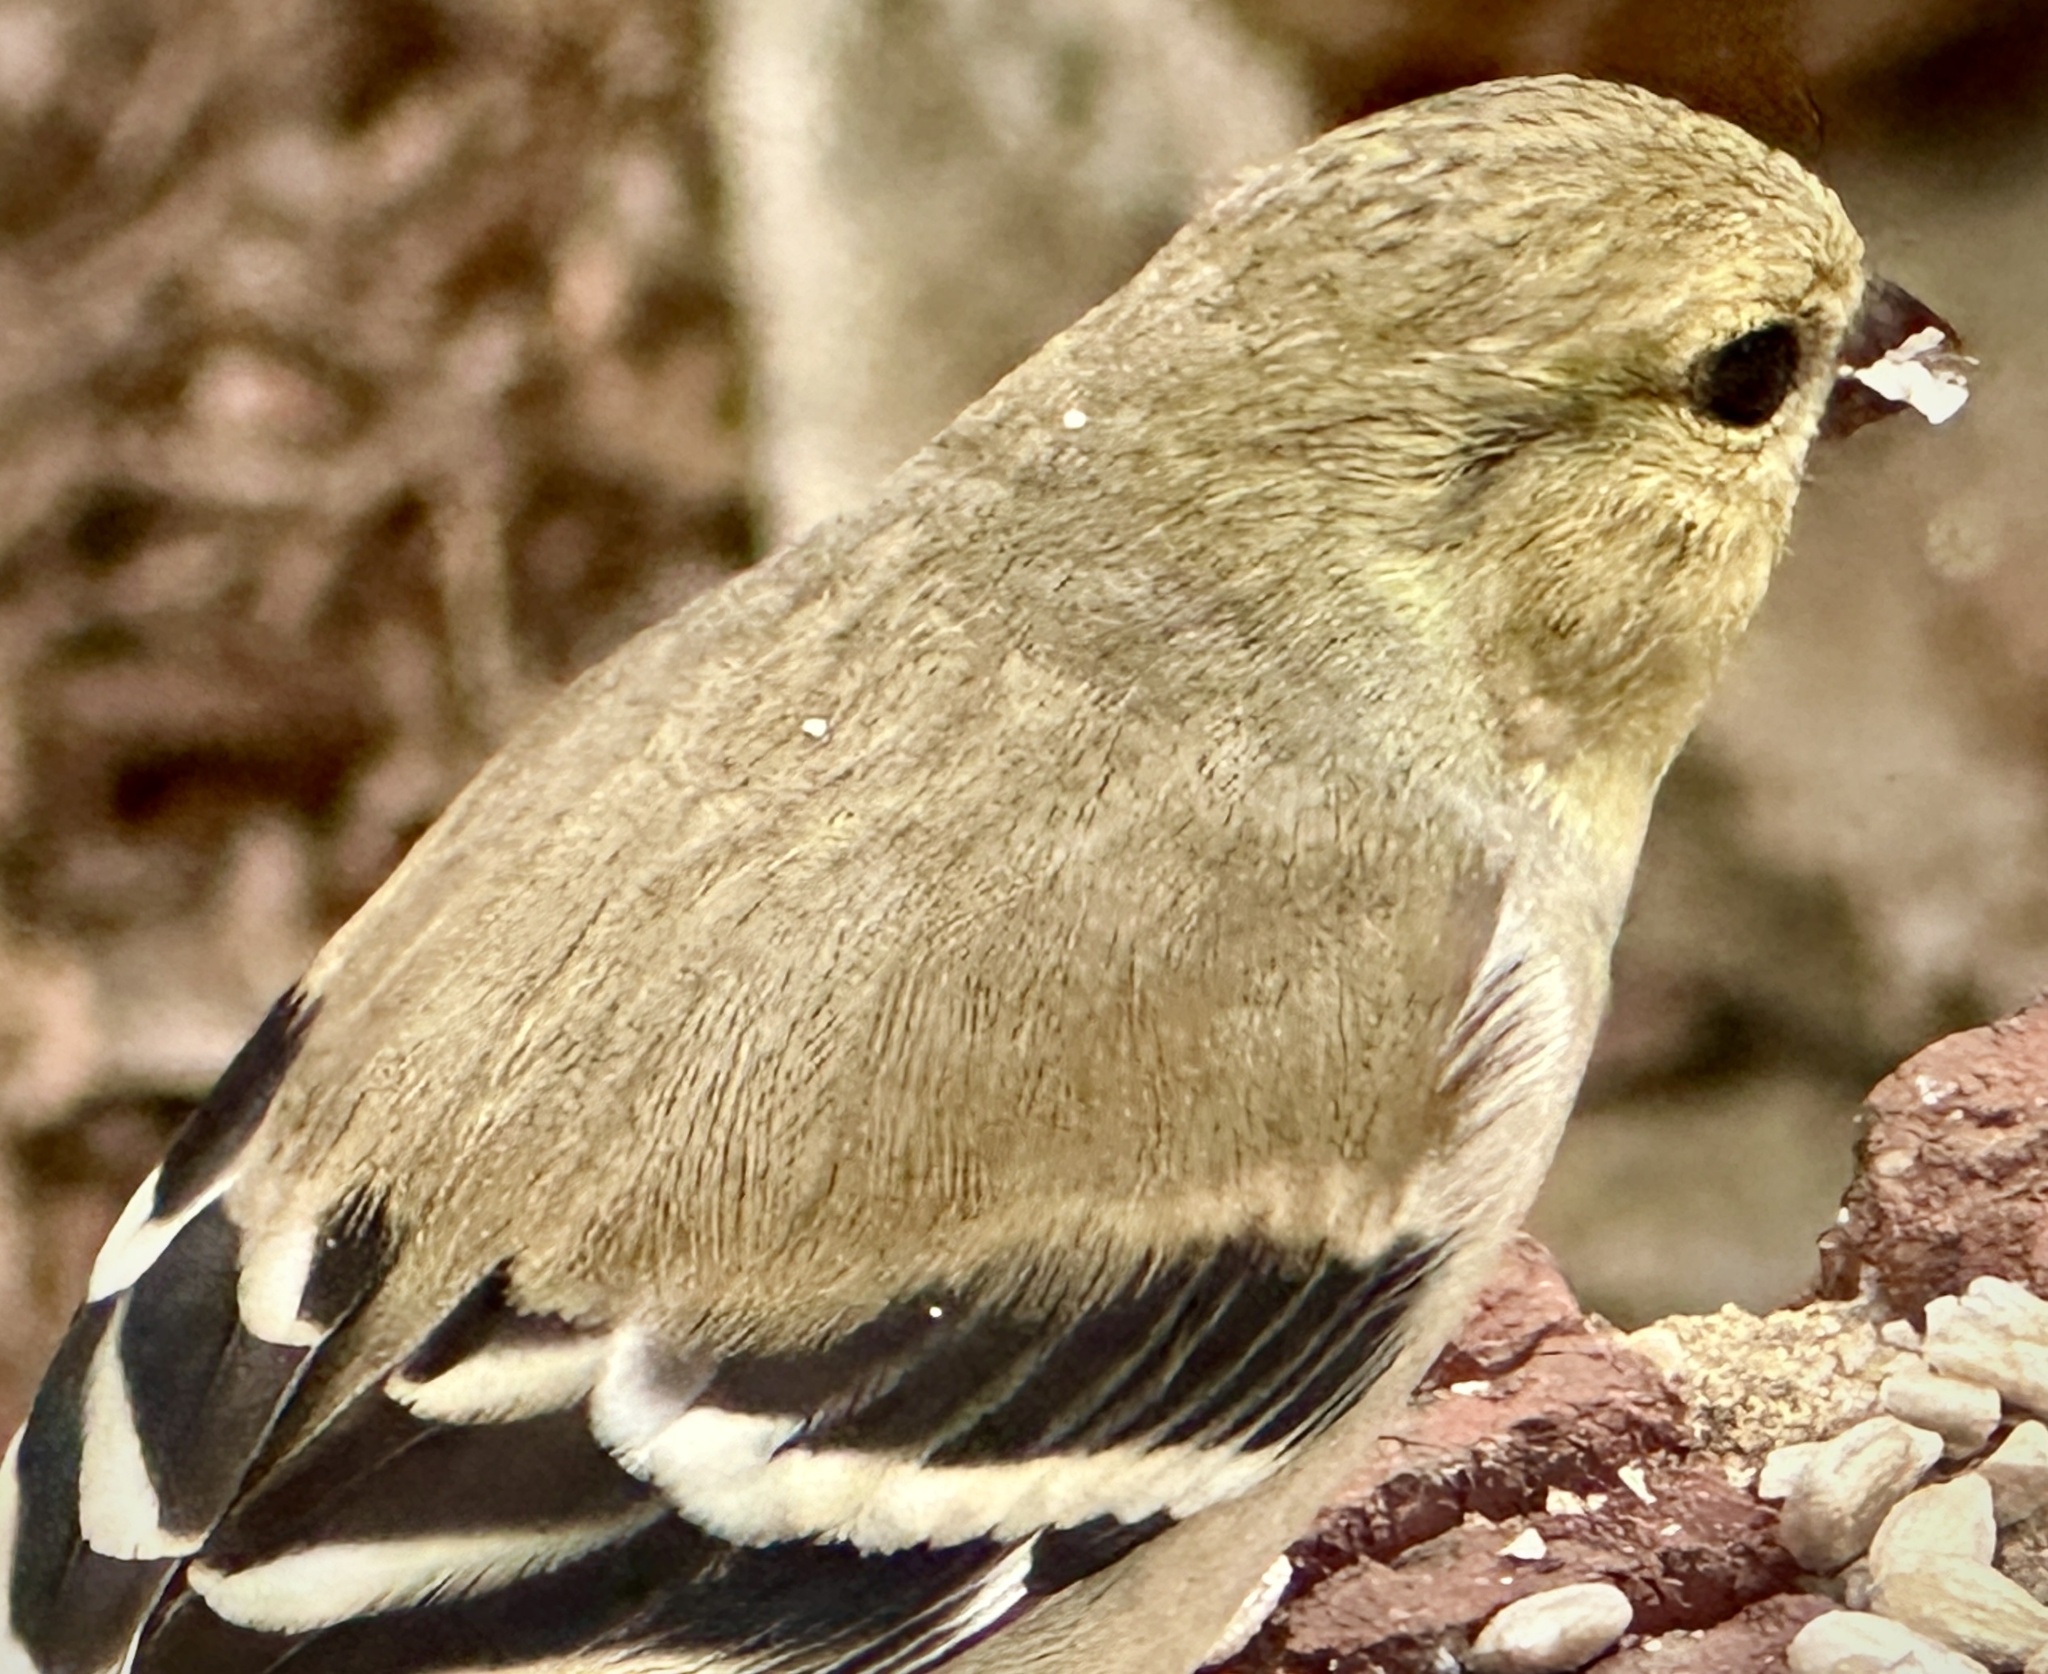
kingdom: Animalia
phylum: Chordata
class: Aves
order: Passeriformes
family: Fringillidae
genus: Spinus
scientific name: Spinus tristis
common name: American goldfinch
